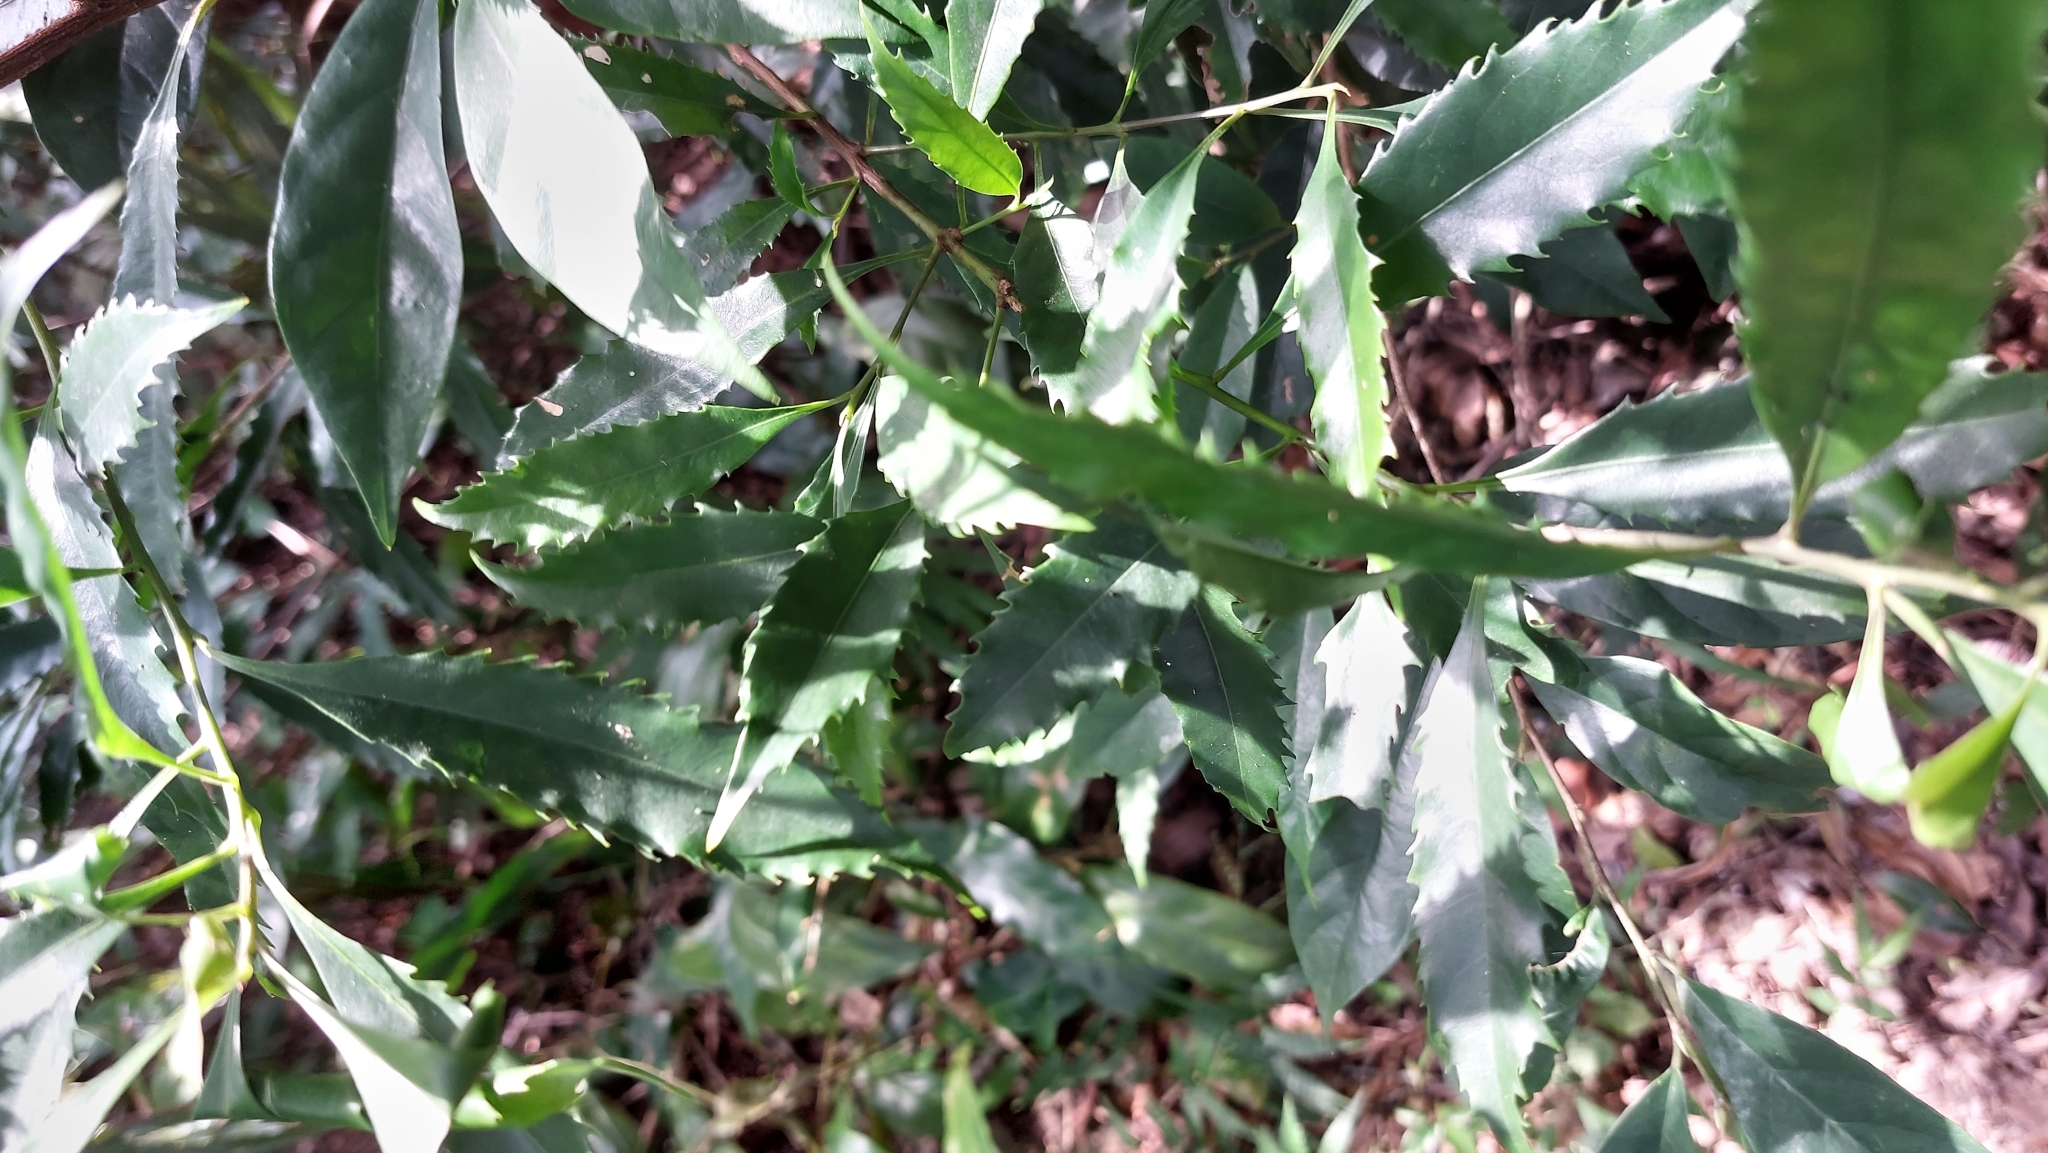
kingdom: Plantae
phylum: Tracheophyta
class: Magnoliopsida
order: Proteales
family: Proteaceae
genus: Helicia
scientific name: Helicia cochinchinensis
